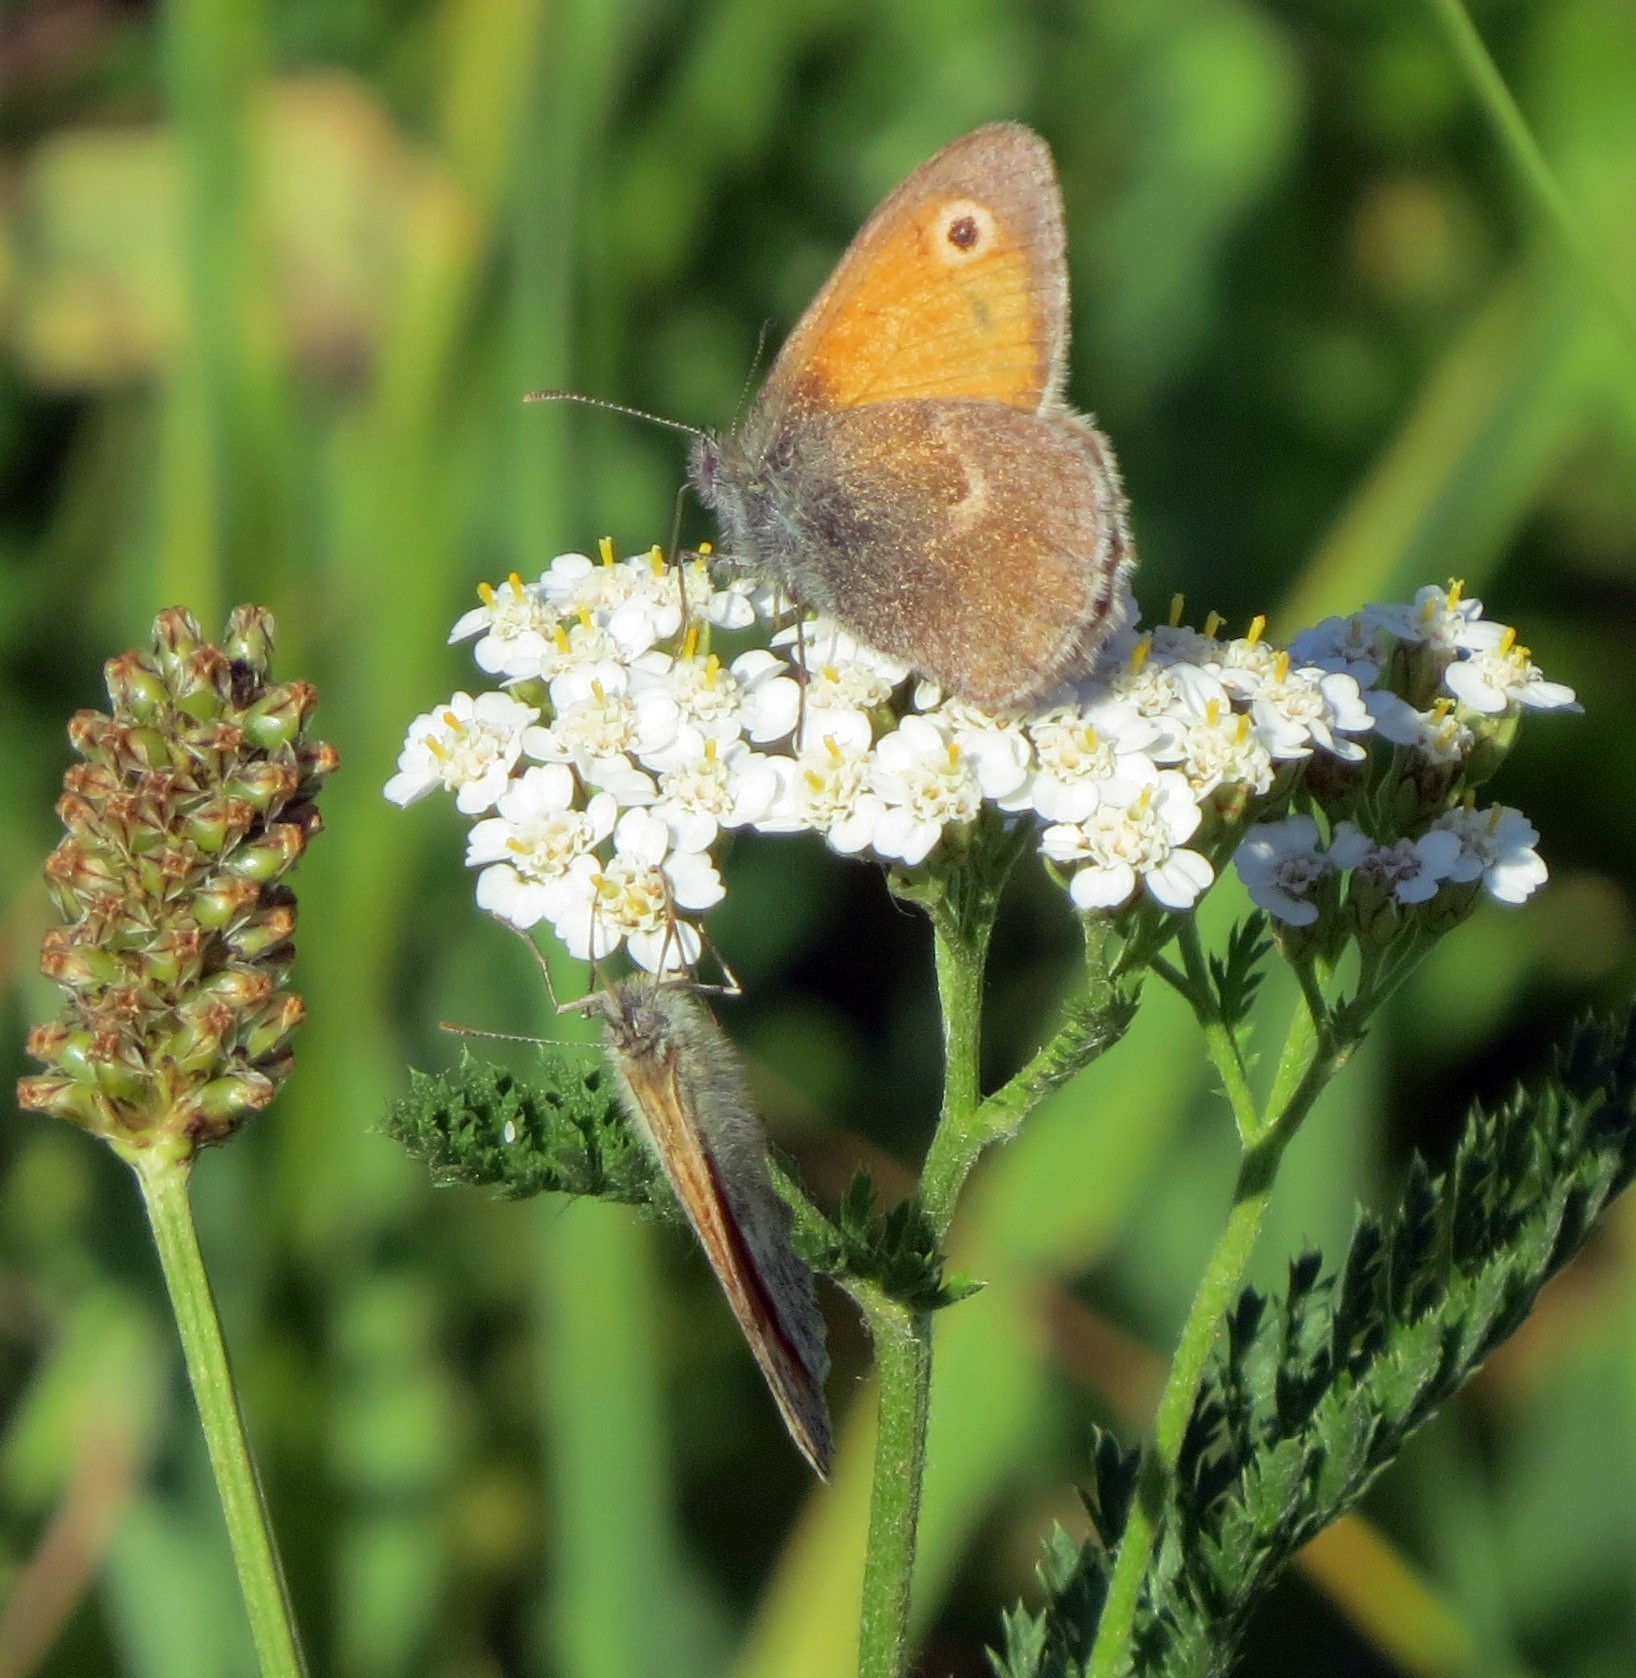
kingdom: Animalia
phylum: Arthropoda
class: Insecta
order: Lepidoptera
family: Nymphalidae
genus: Coenonympha
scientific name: Coenonympha pamphilus
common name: Small heath
